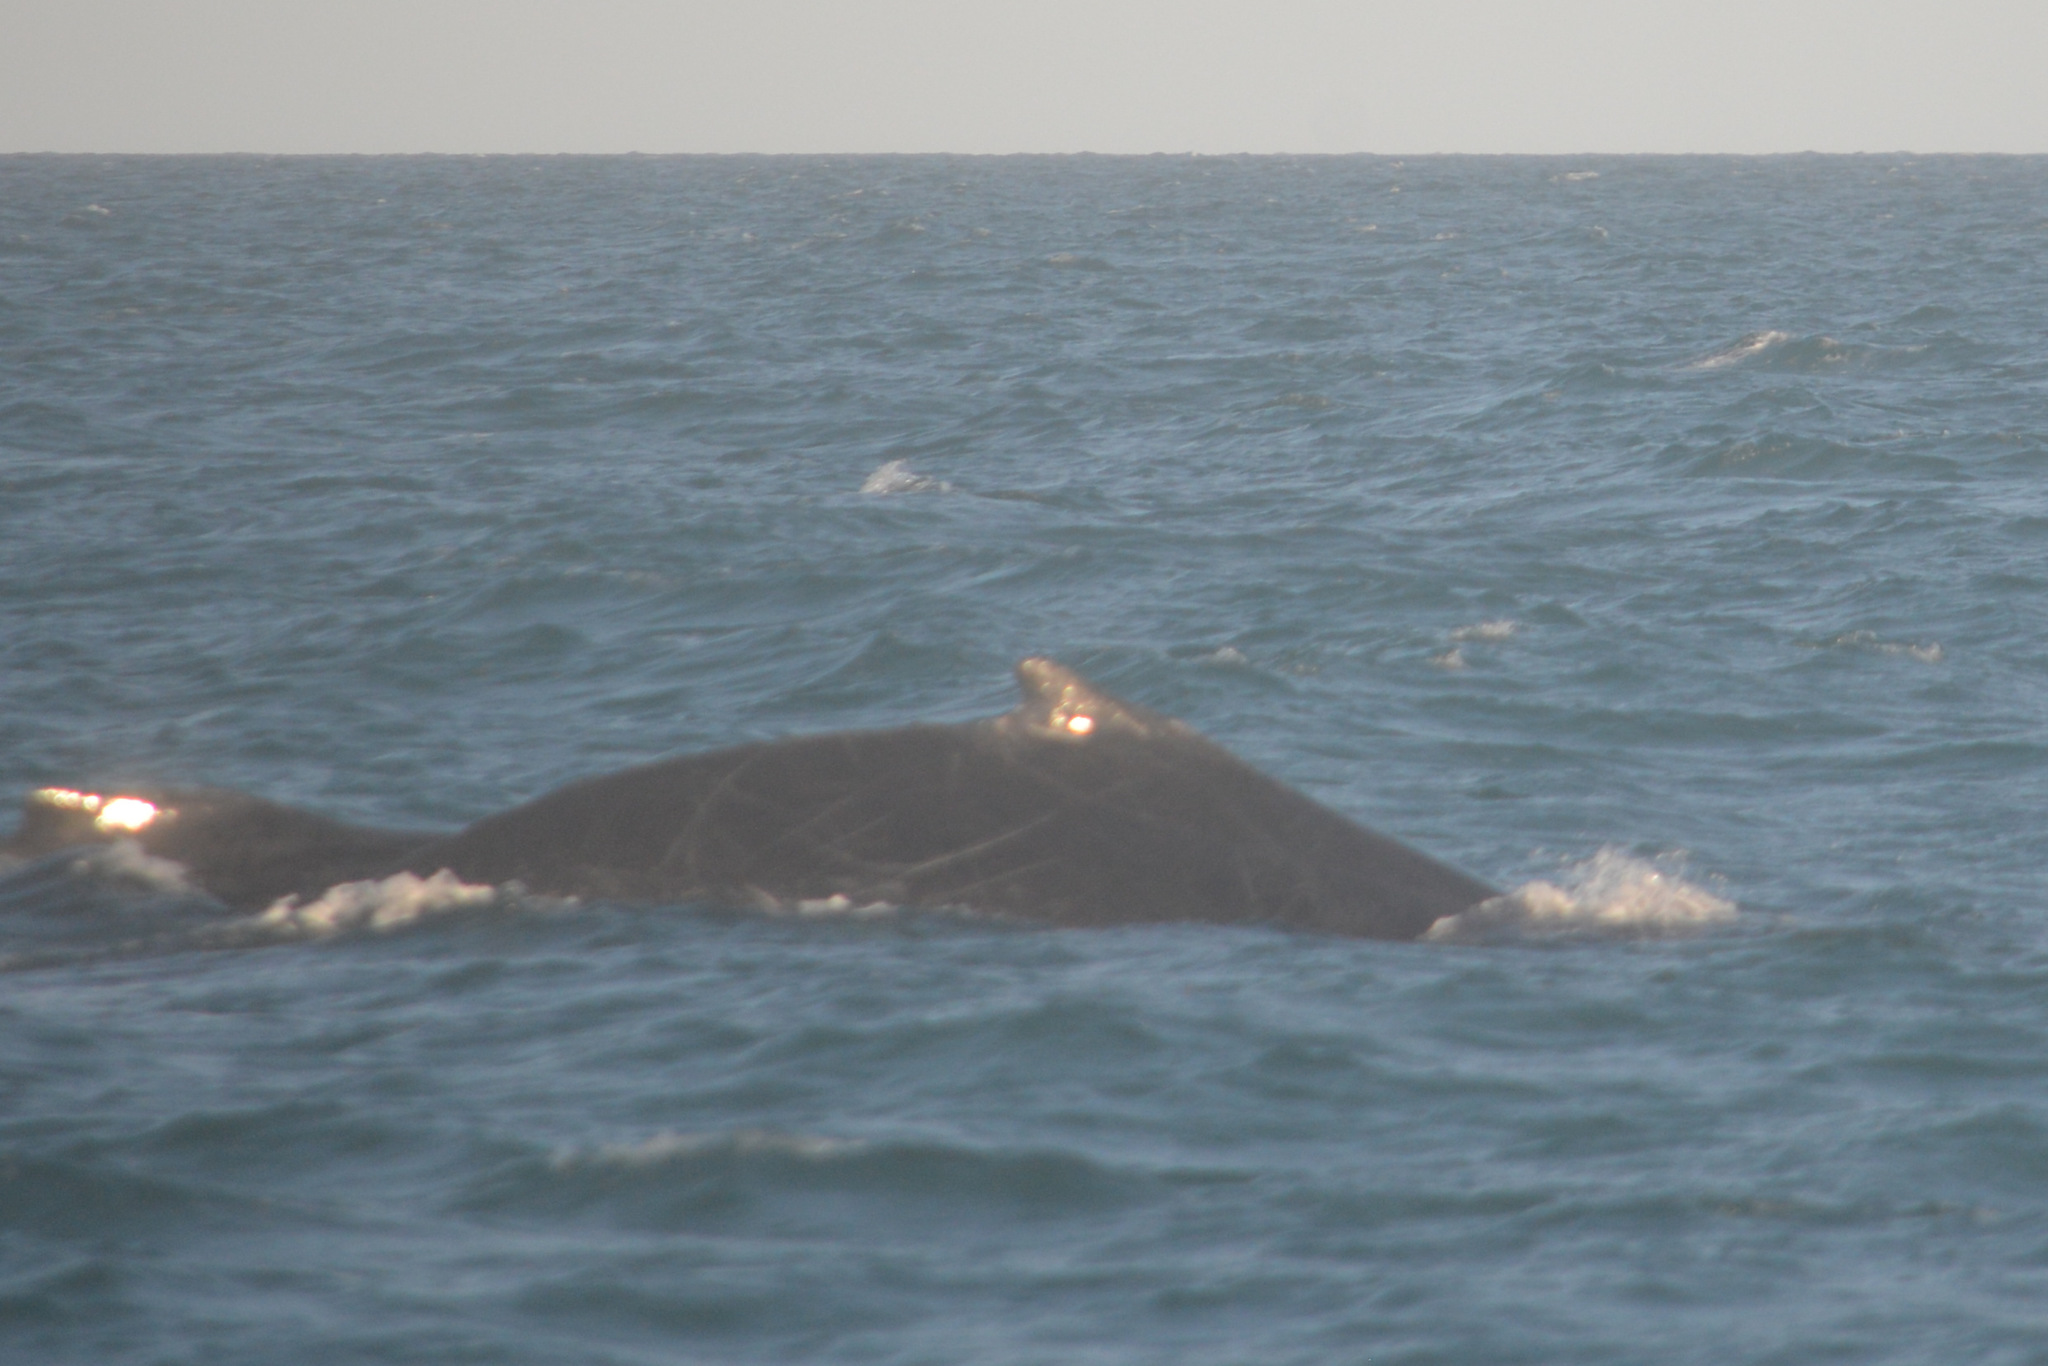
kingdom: Animalia
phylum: Chordata
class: Mammalia
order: Cetacea
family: Balaenopteridae
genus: Megaptera
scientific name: Megaptera novaeangliae
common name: Humpback whale
